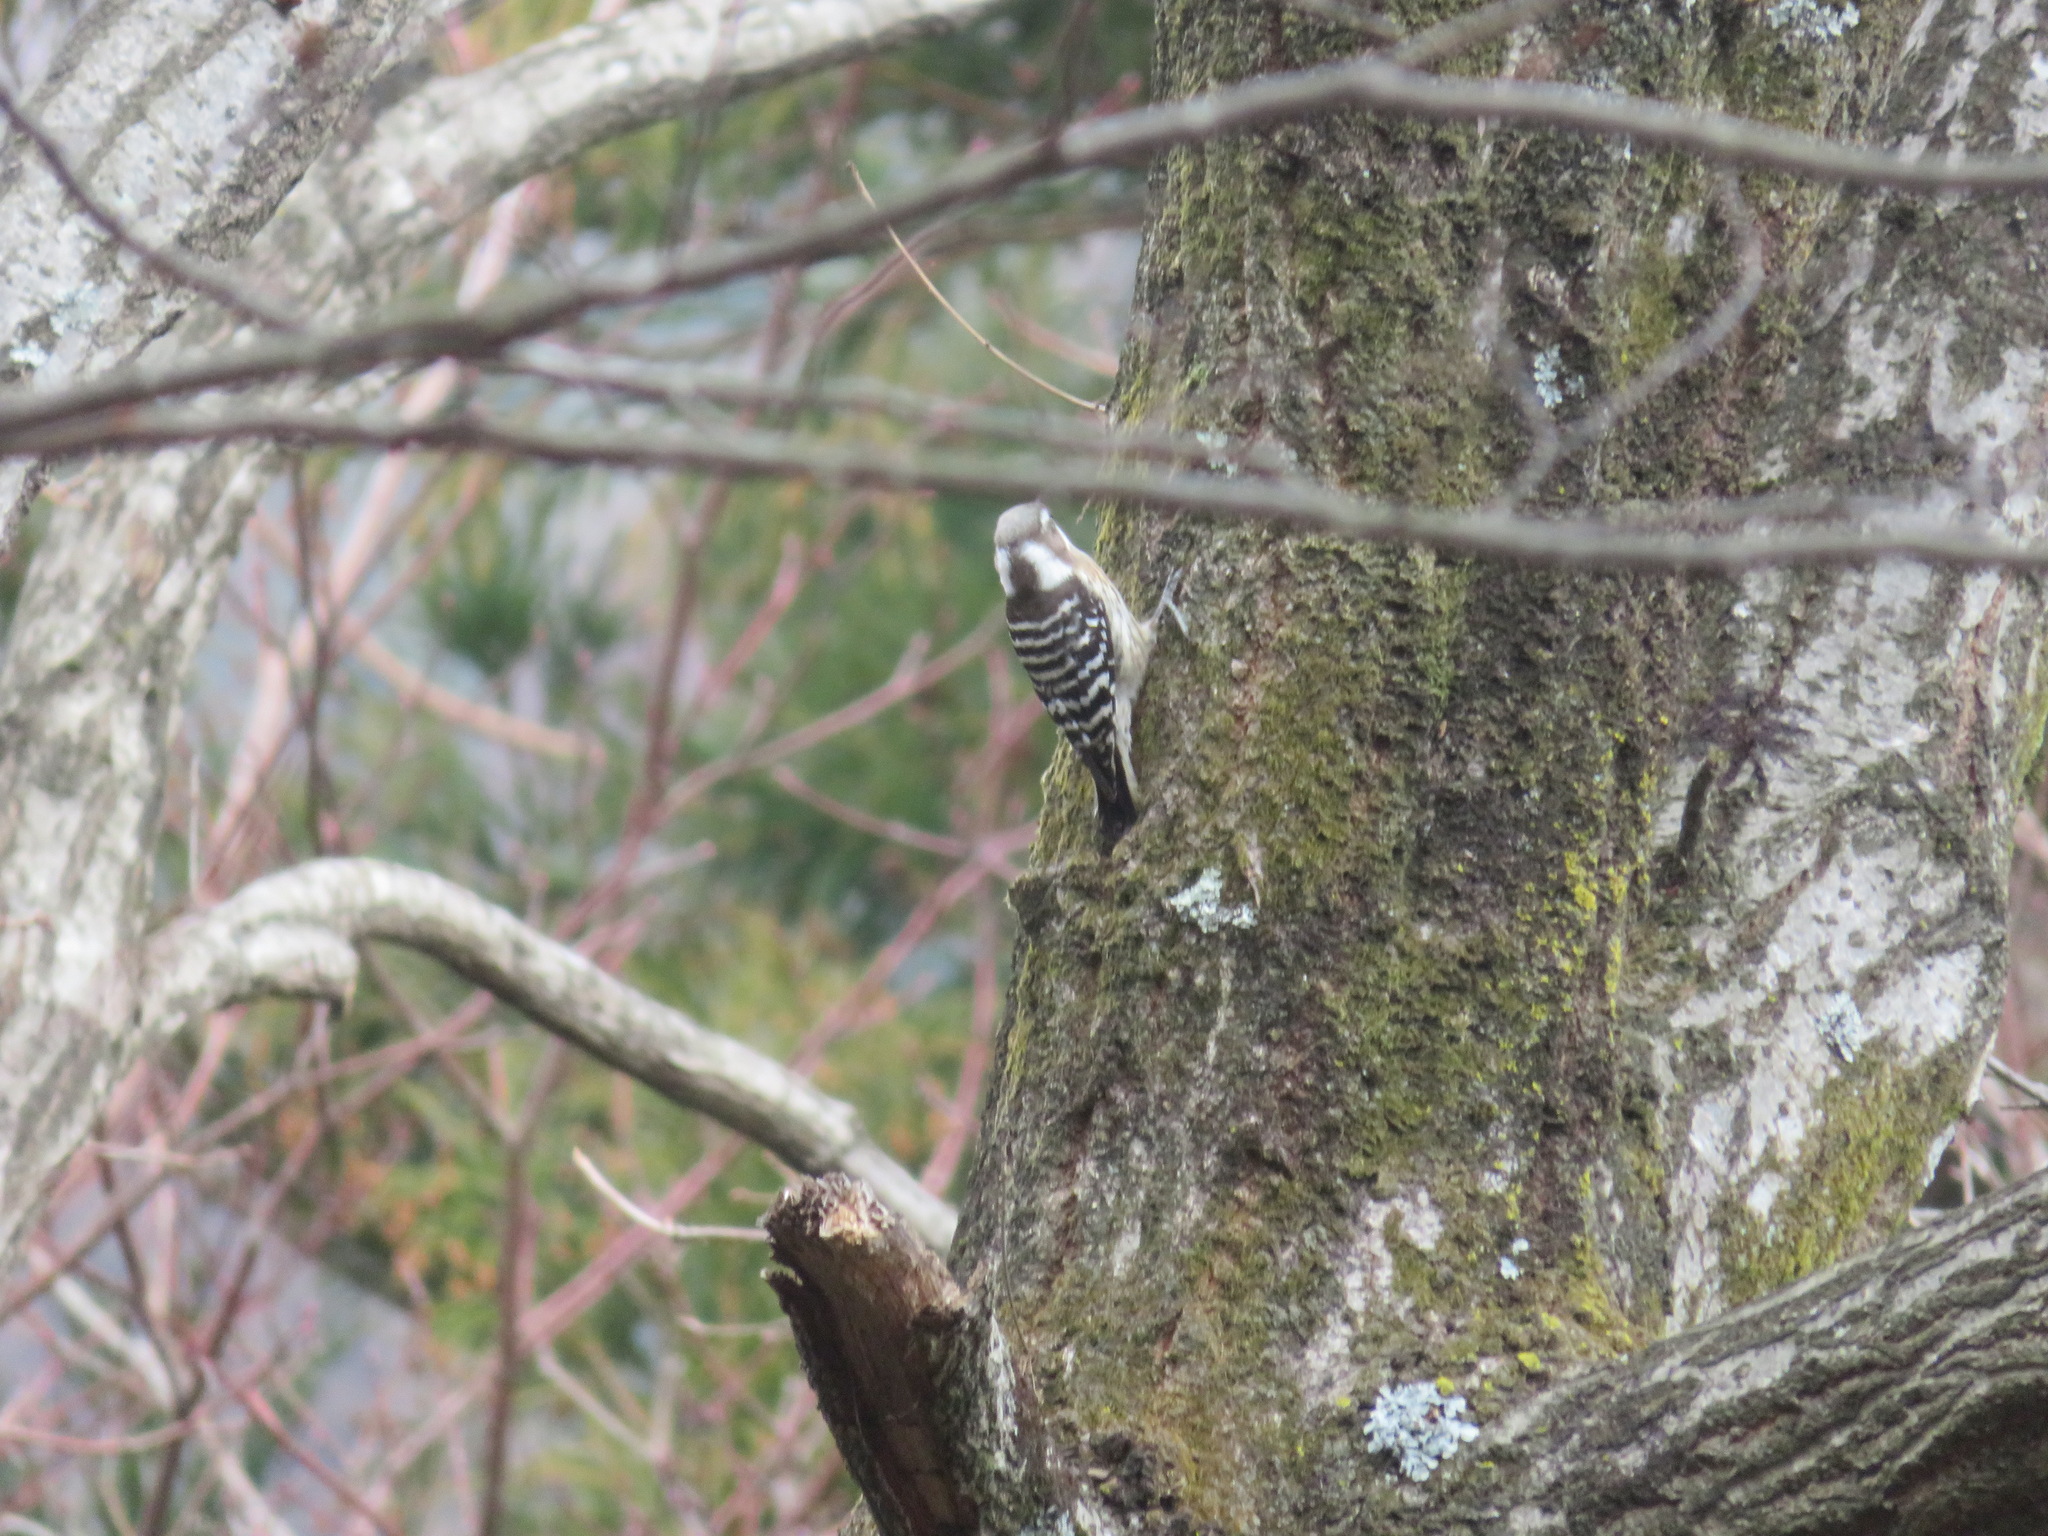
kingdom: Animalia
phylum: Chordata
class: Aves
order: Piciformes
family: Picidae
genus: Yungipicus
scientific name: Yungipicus kizuki
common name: Japanese pygmy woodpecker
